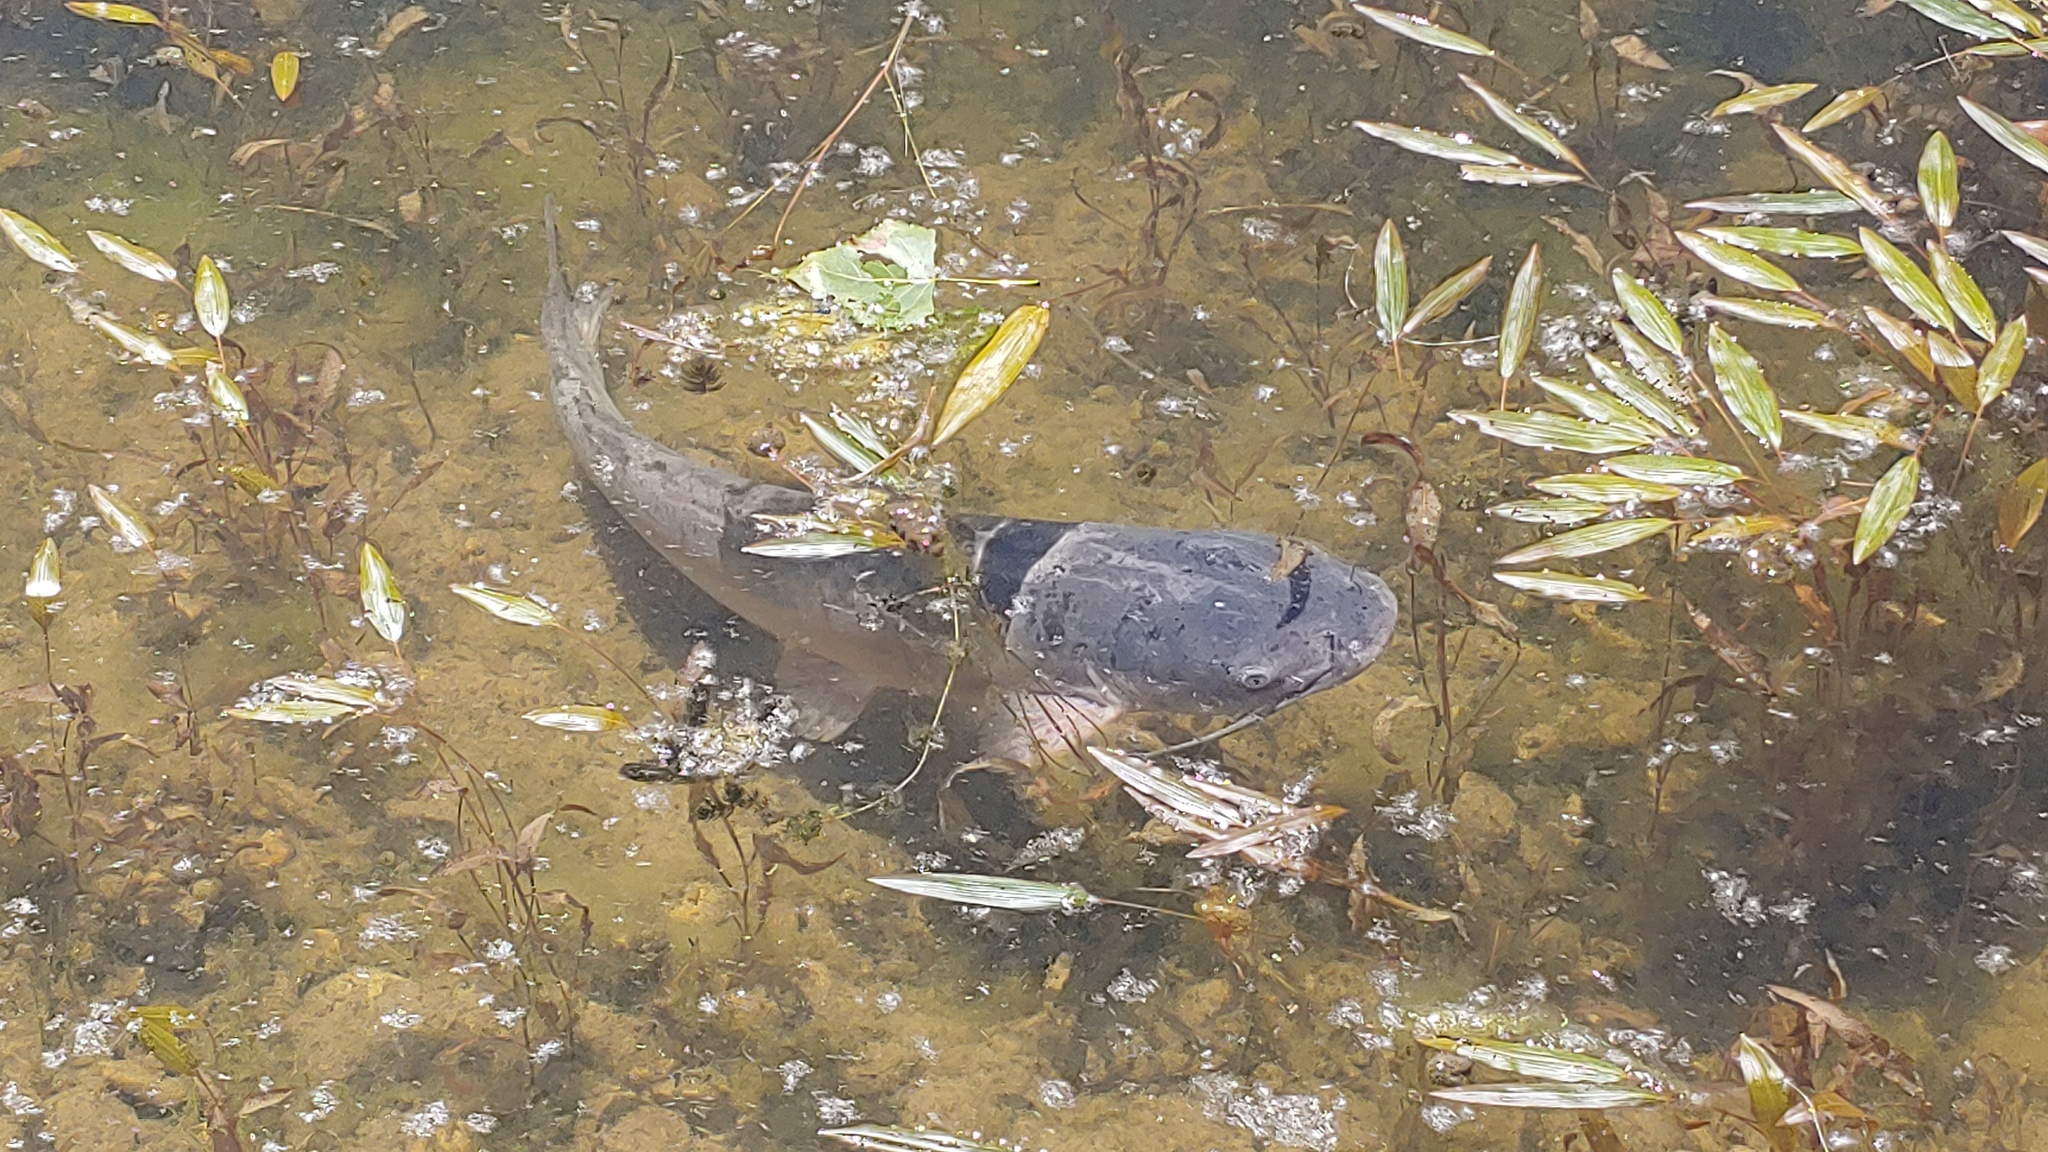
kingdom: Animalia
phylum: Chordata
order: Siluriformes
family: Ictaluridae
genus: Ictalurus
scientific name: Ictalurus punctatus
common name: Channel catfish
